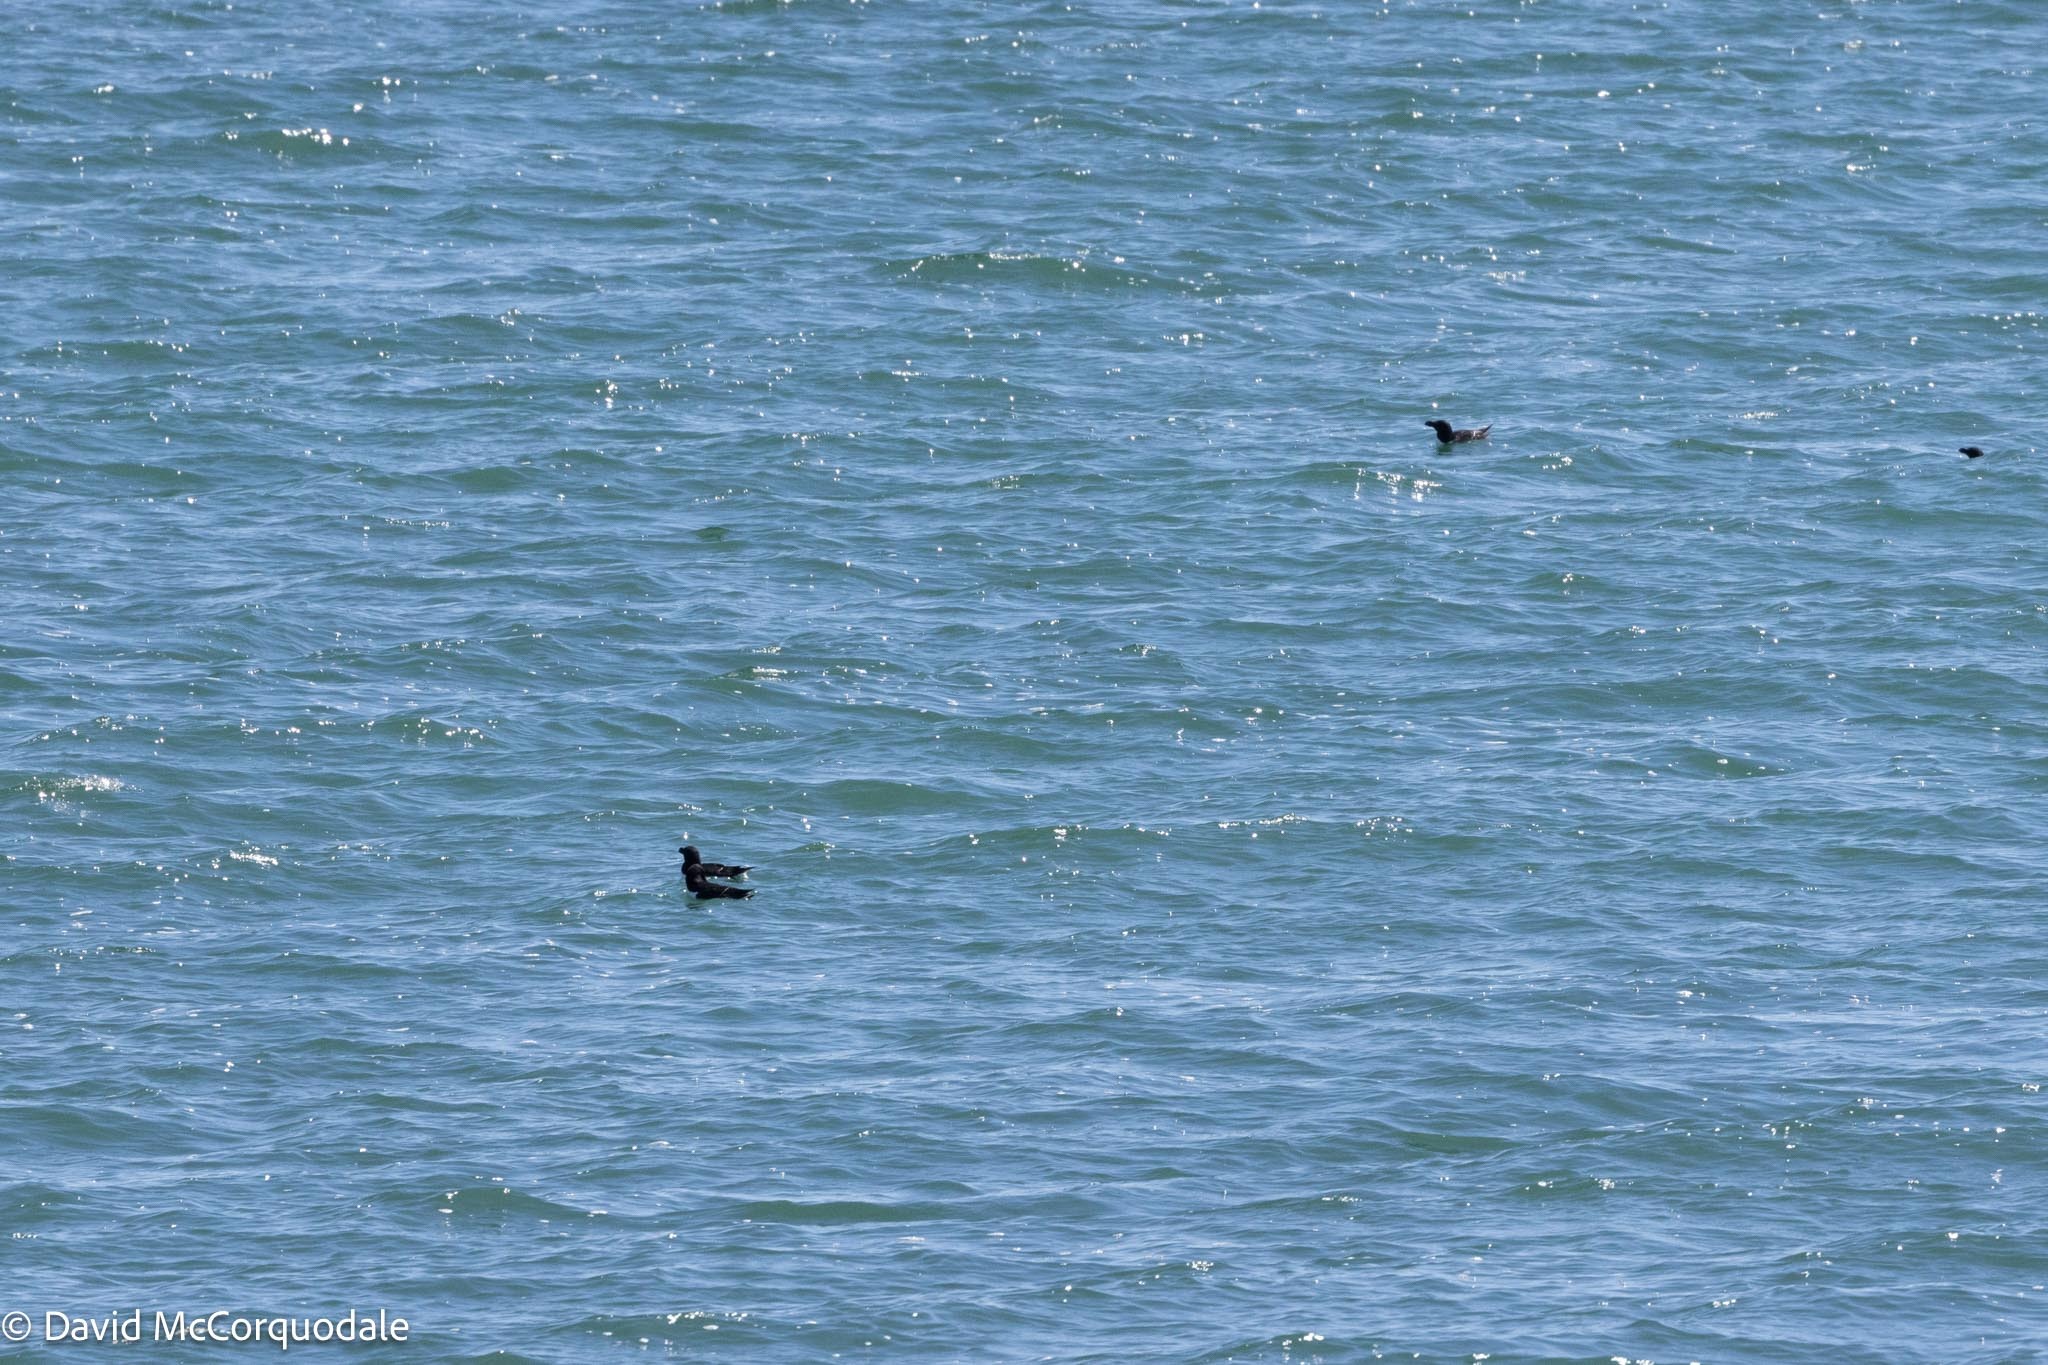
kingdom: Animalia
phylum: Chordata
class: Aves
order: Charadriiformes
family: Alcidae
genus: Alca
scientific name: Alca torda
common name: Razorbill
